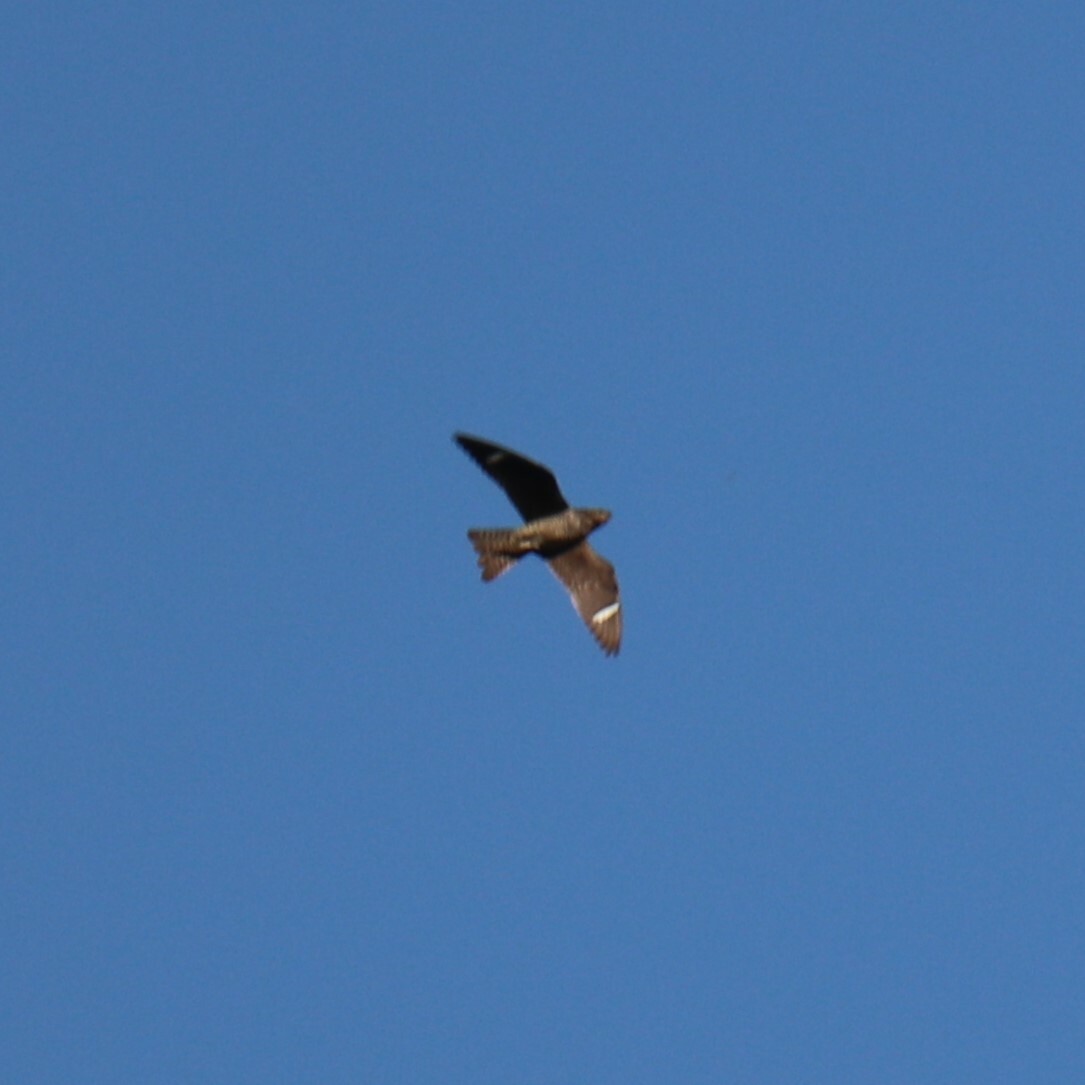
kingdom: Animalia
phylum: Chordata
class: Aves
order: Caprimulgiformes
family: Caprimulgidae
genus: Chordeiles
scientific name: Chordeiles minor
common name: Common nighthawk
